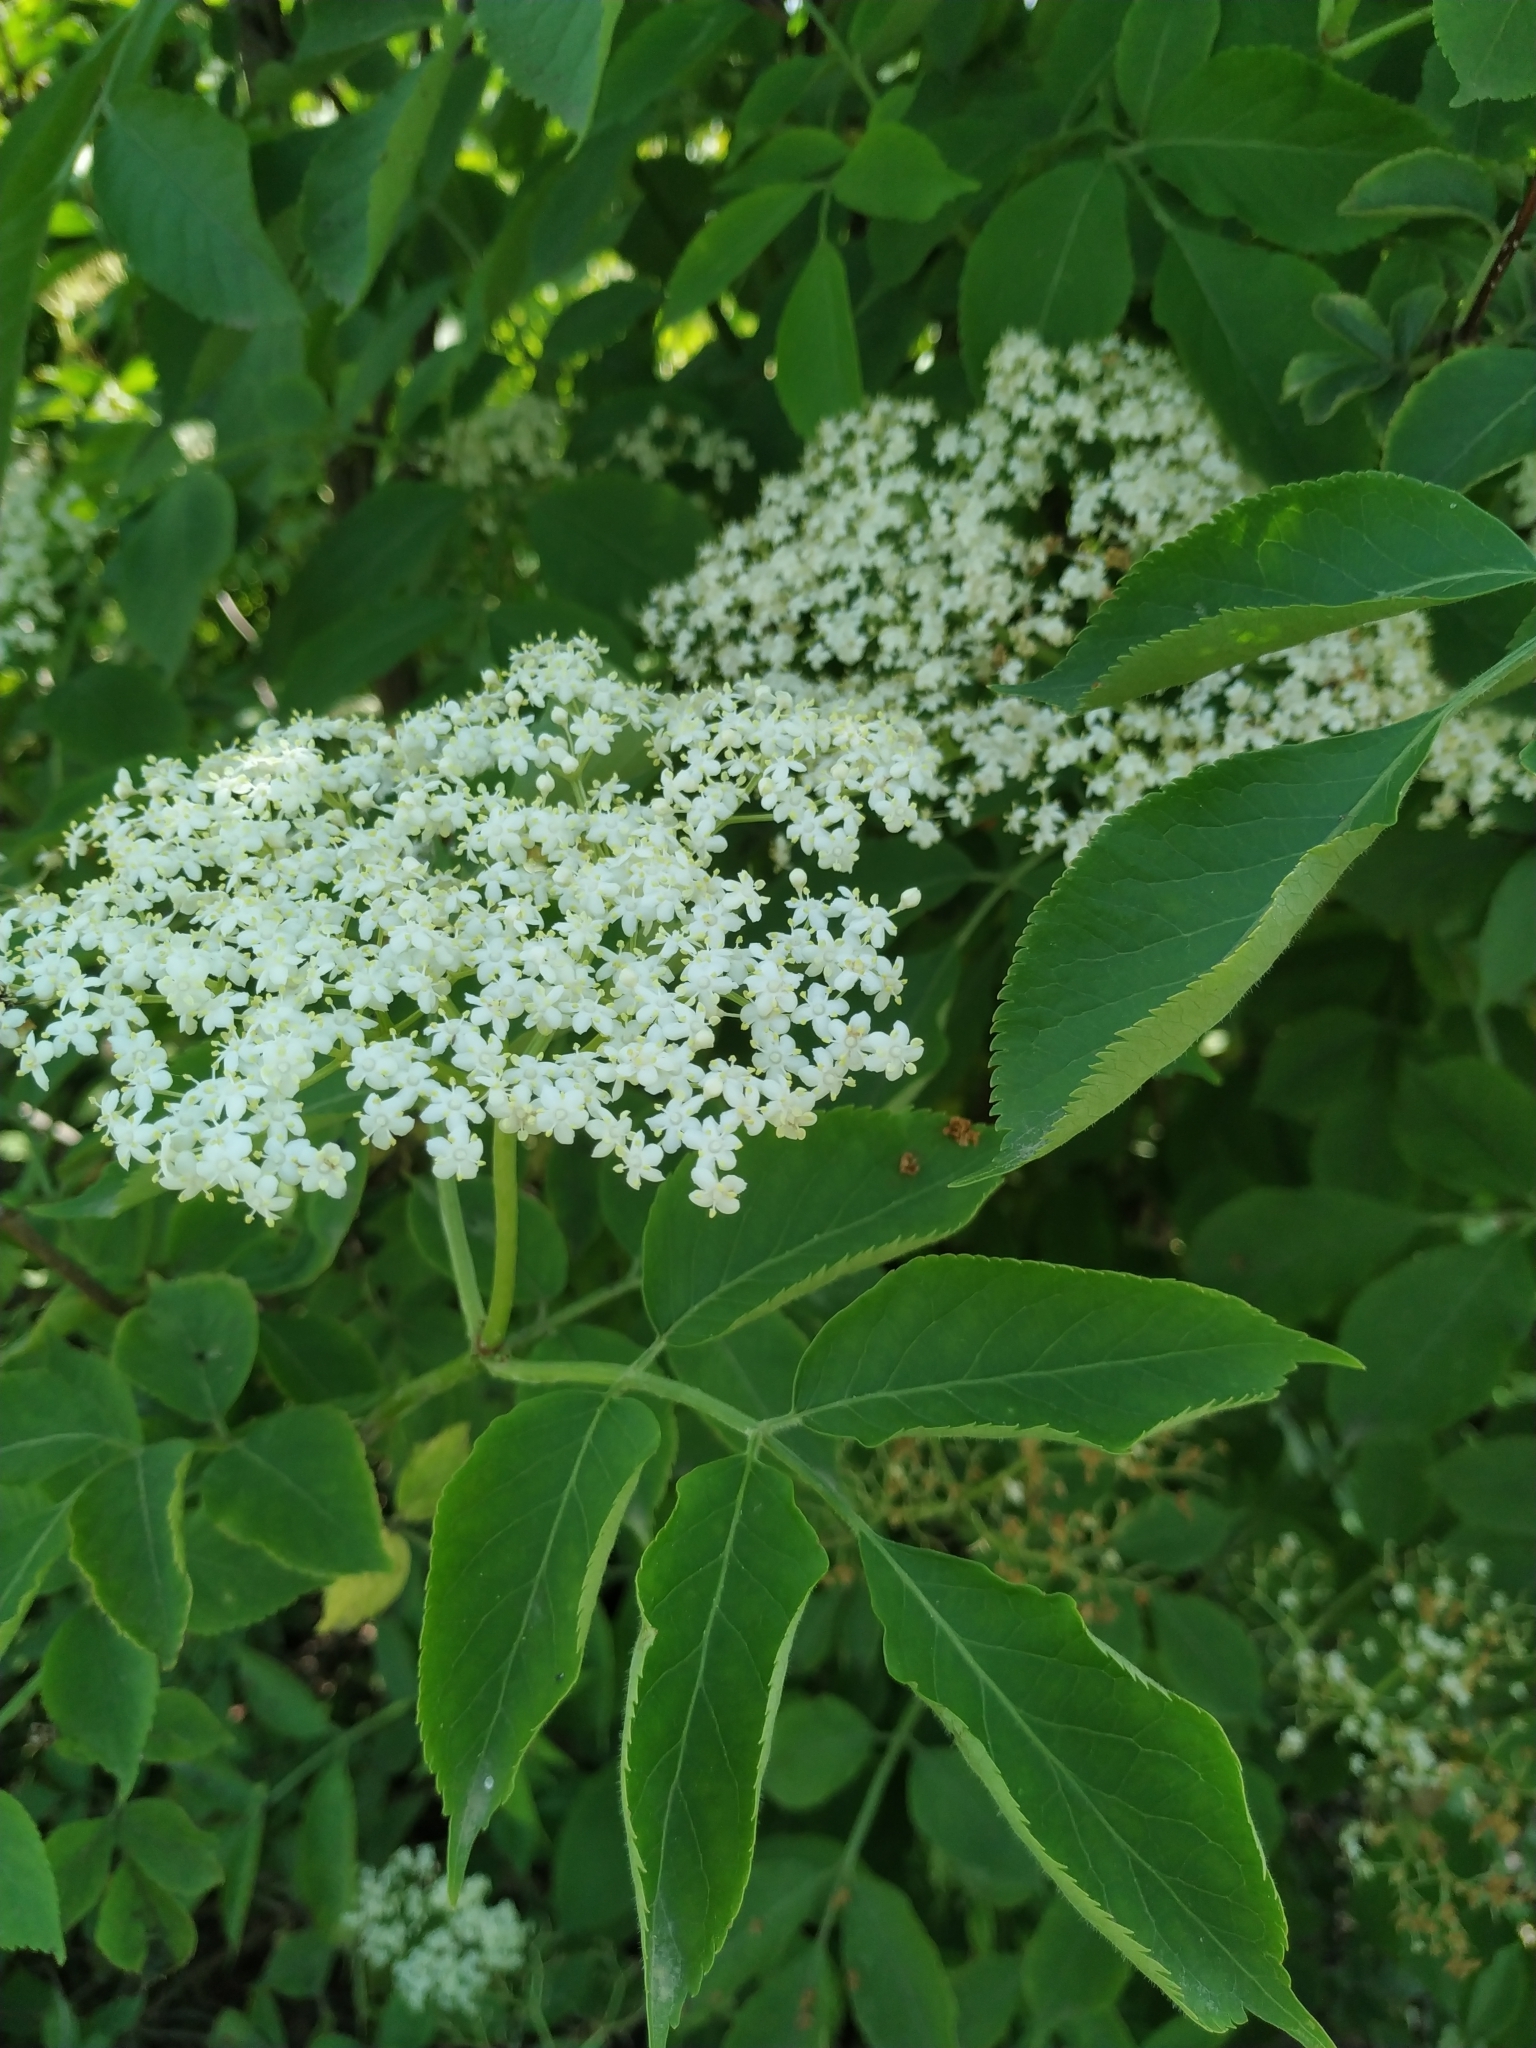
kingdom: Plantae
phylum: Tracheophyta
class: Magnoliopsida
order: Dipsacales
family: Viburnaceae
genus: Sambucus
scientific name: Sambucus nigra
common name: Elder
